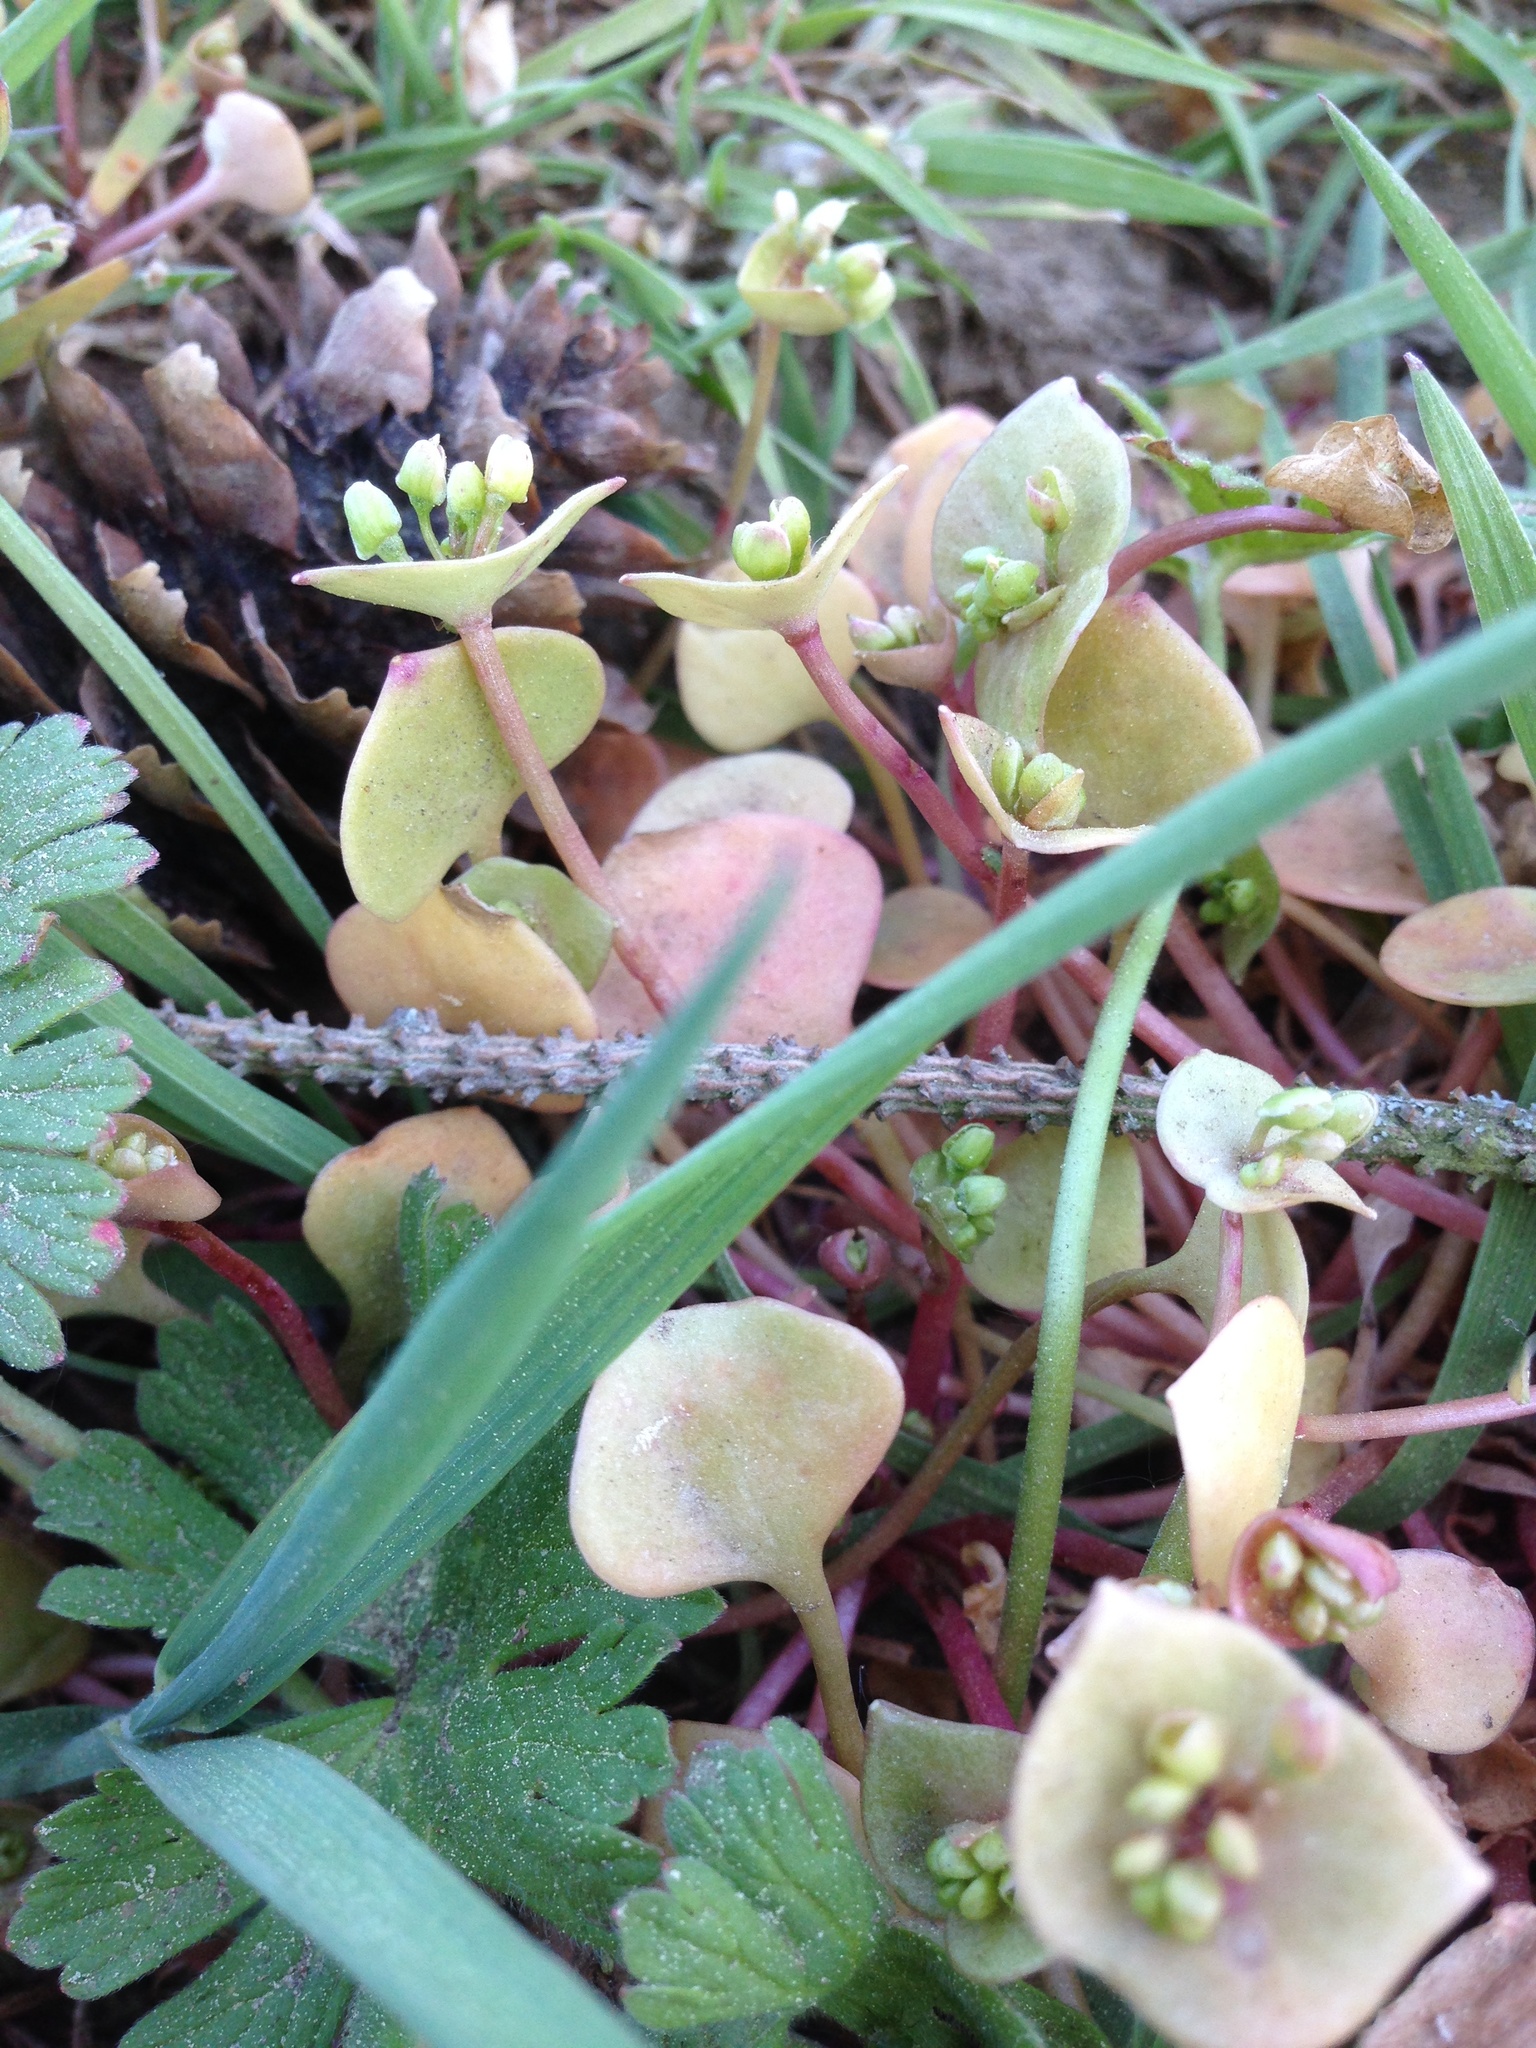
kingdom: Plantae
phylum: Tracheophyta
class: Magnoliopsida
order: Caryophyllales
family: Montiaceae
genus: Claytonia
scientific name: Claytonia perfoliata
